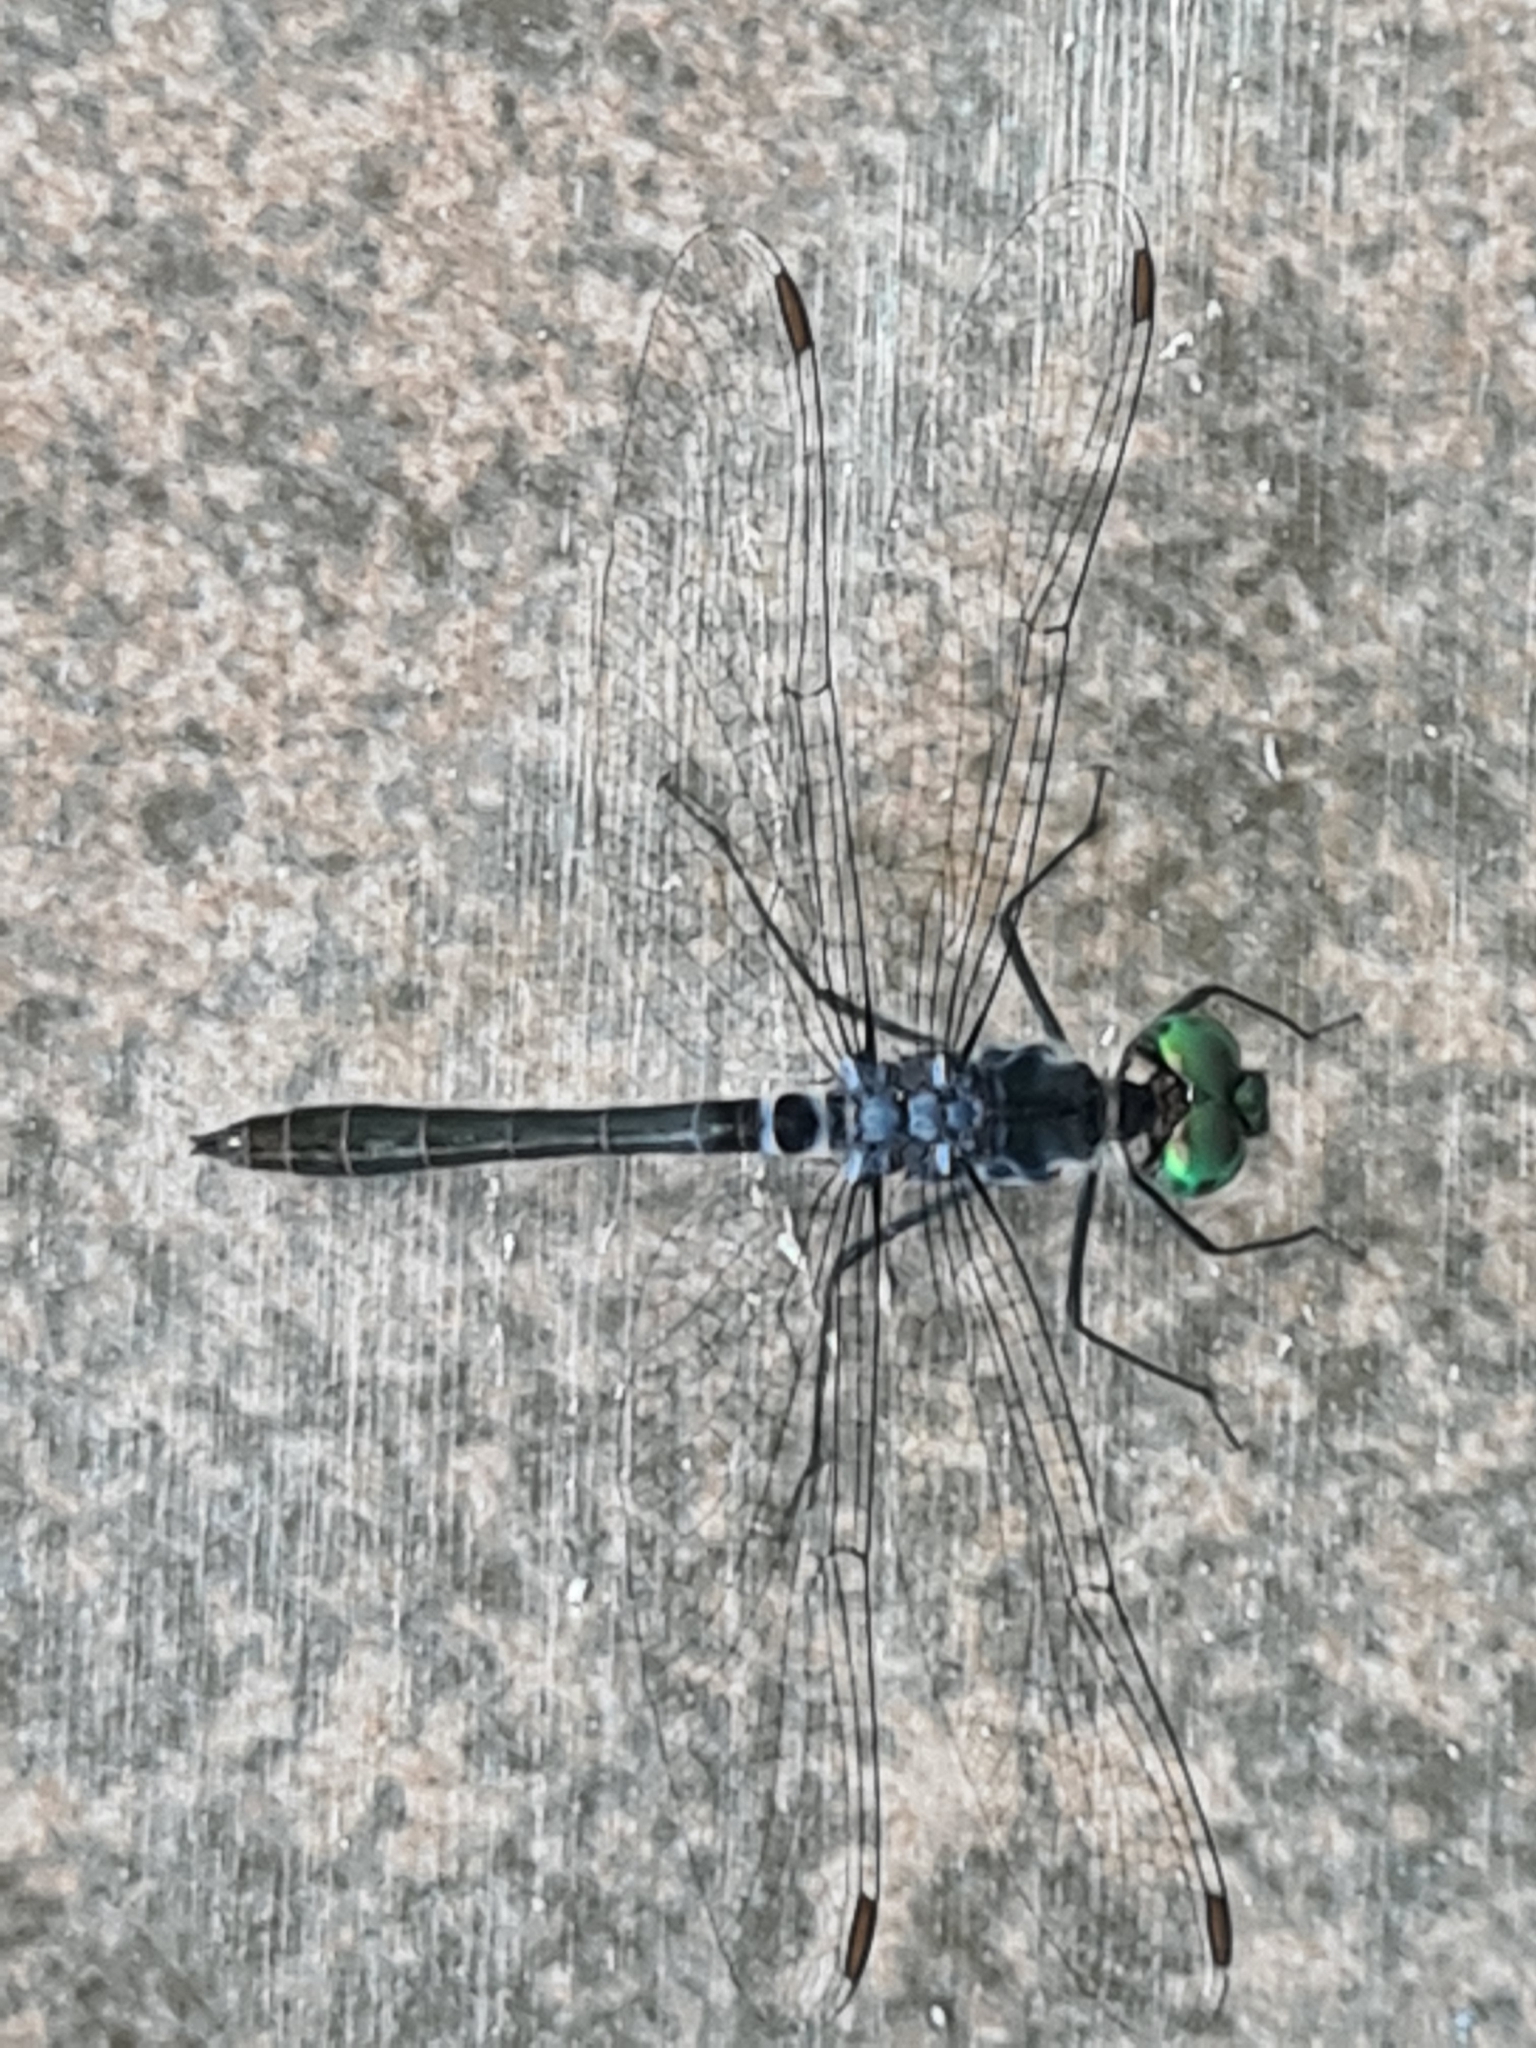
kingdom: Animalia
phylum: Arthropoda
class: Insecta
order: Odonata
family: Libellulidae
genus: Oligoclada
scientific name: Oligoclada pachystigma
